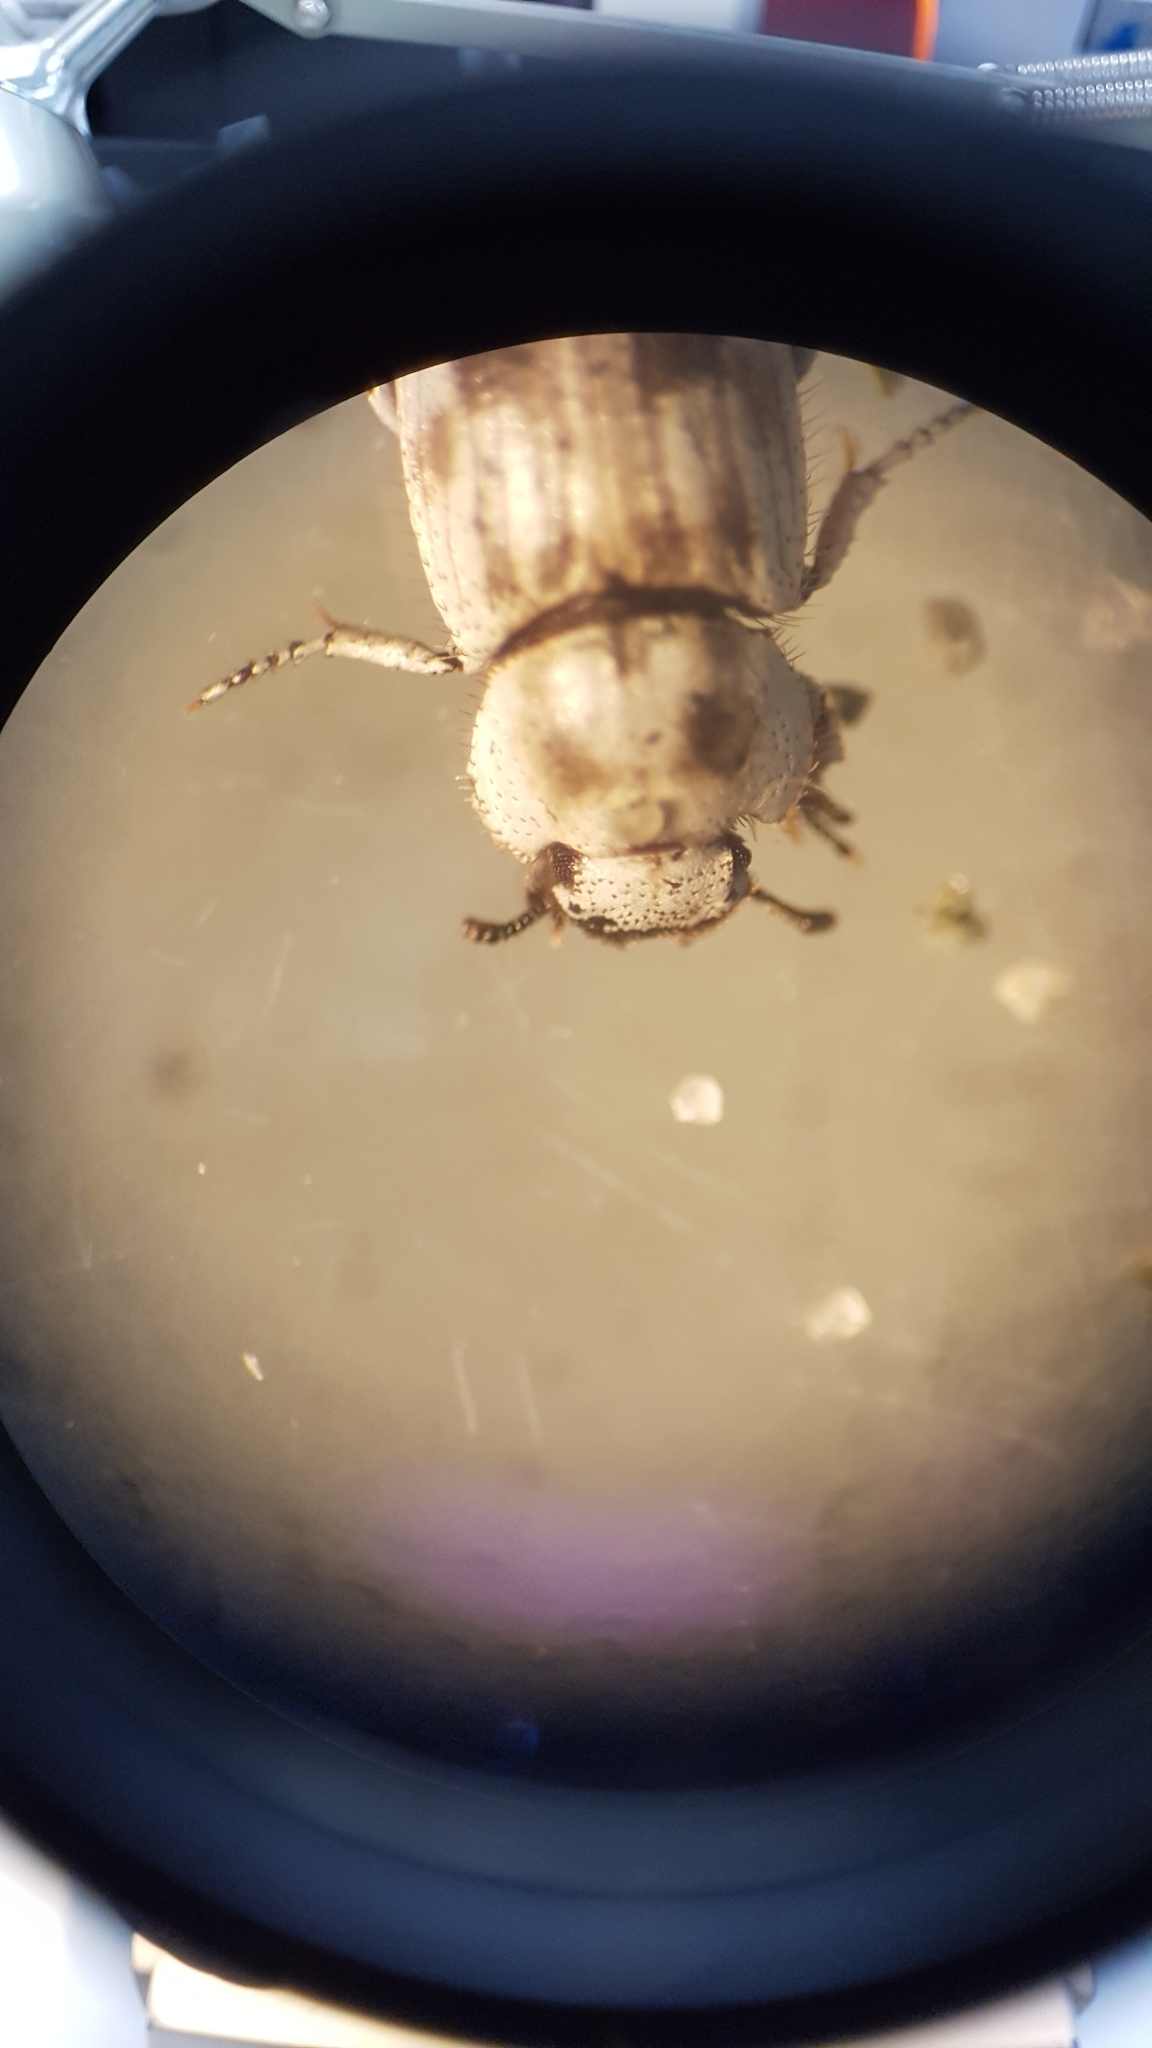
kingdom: Animalia
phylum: Arthropoda
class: Insecta
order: Coleoptera
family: Tenebrionidae
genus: Actizeta
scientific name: Actizeta
